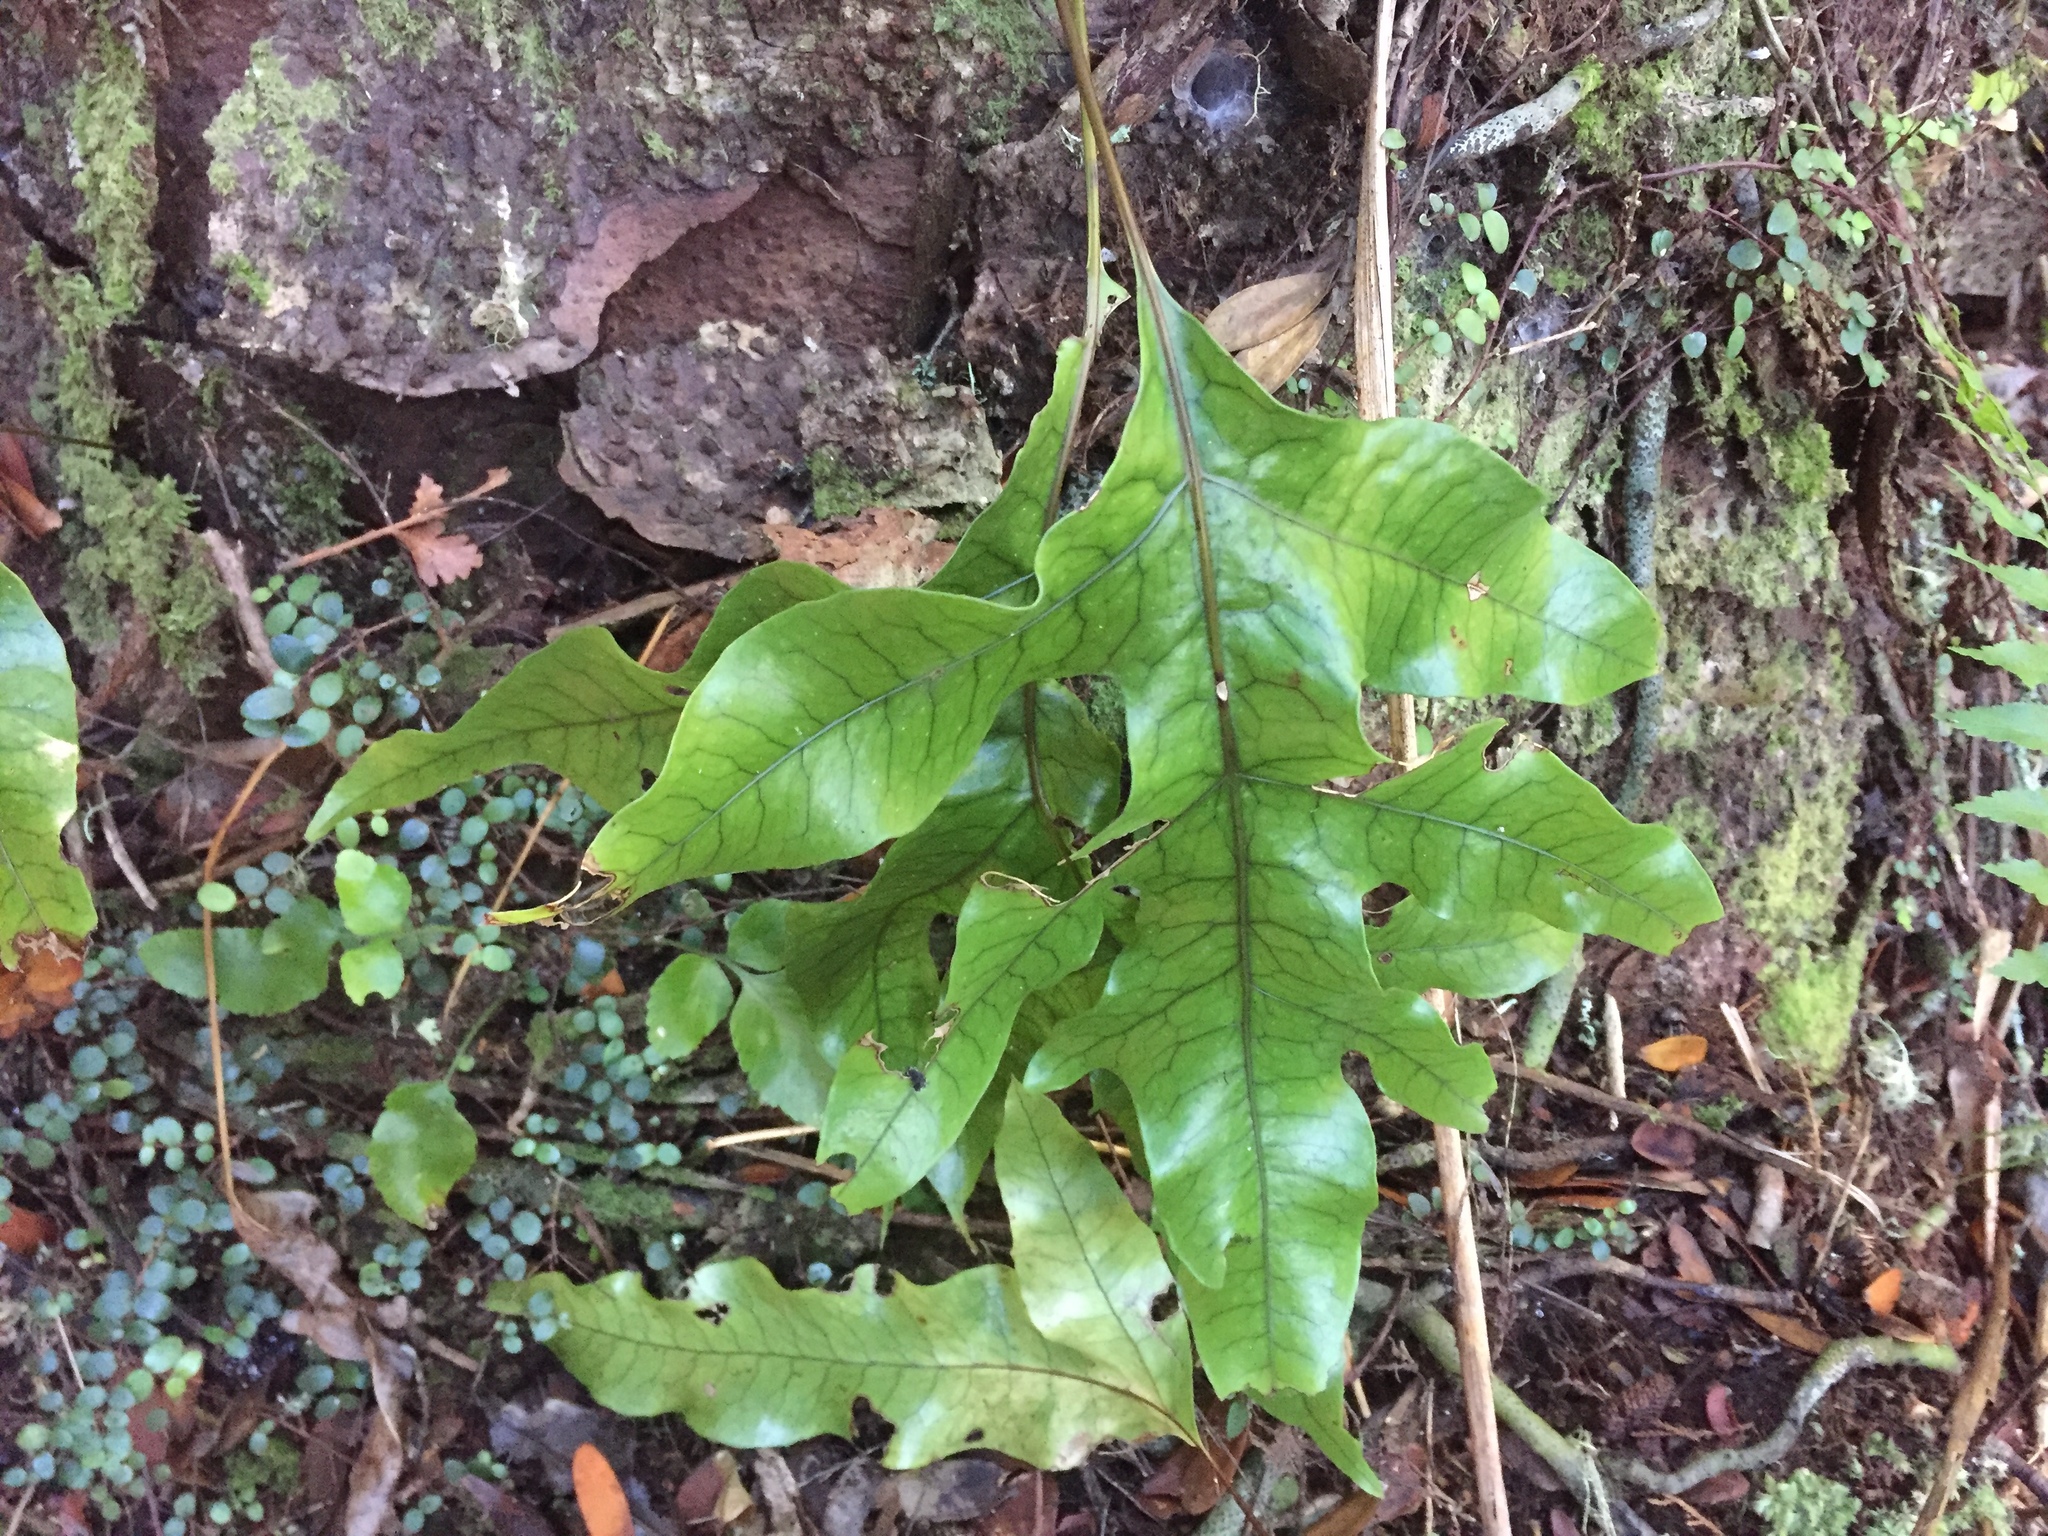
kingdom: Plantae
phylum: Tracheophyta
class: Polypodiopsida
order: Polypodiales
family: Polypodiaceae
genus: Lecanopteris
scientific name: Lecanopteris pustulata
